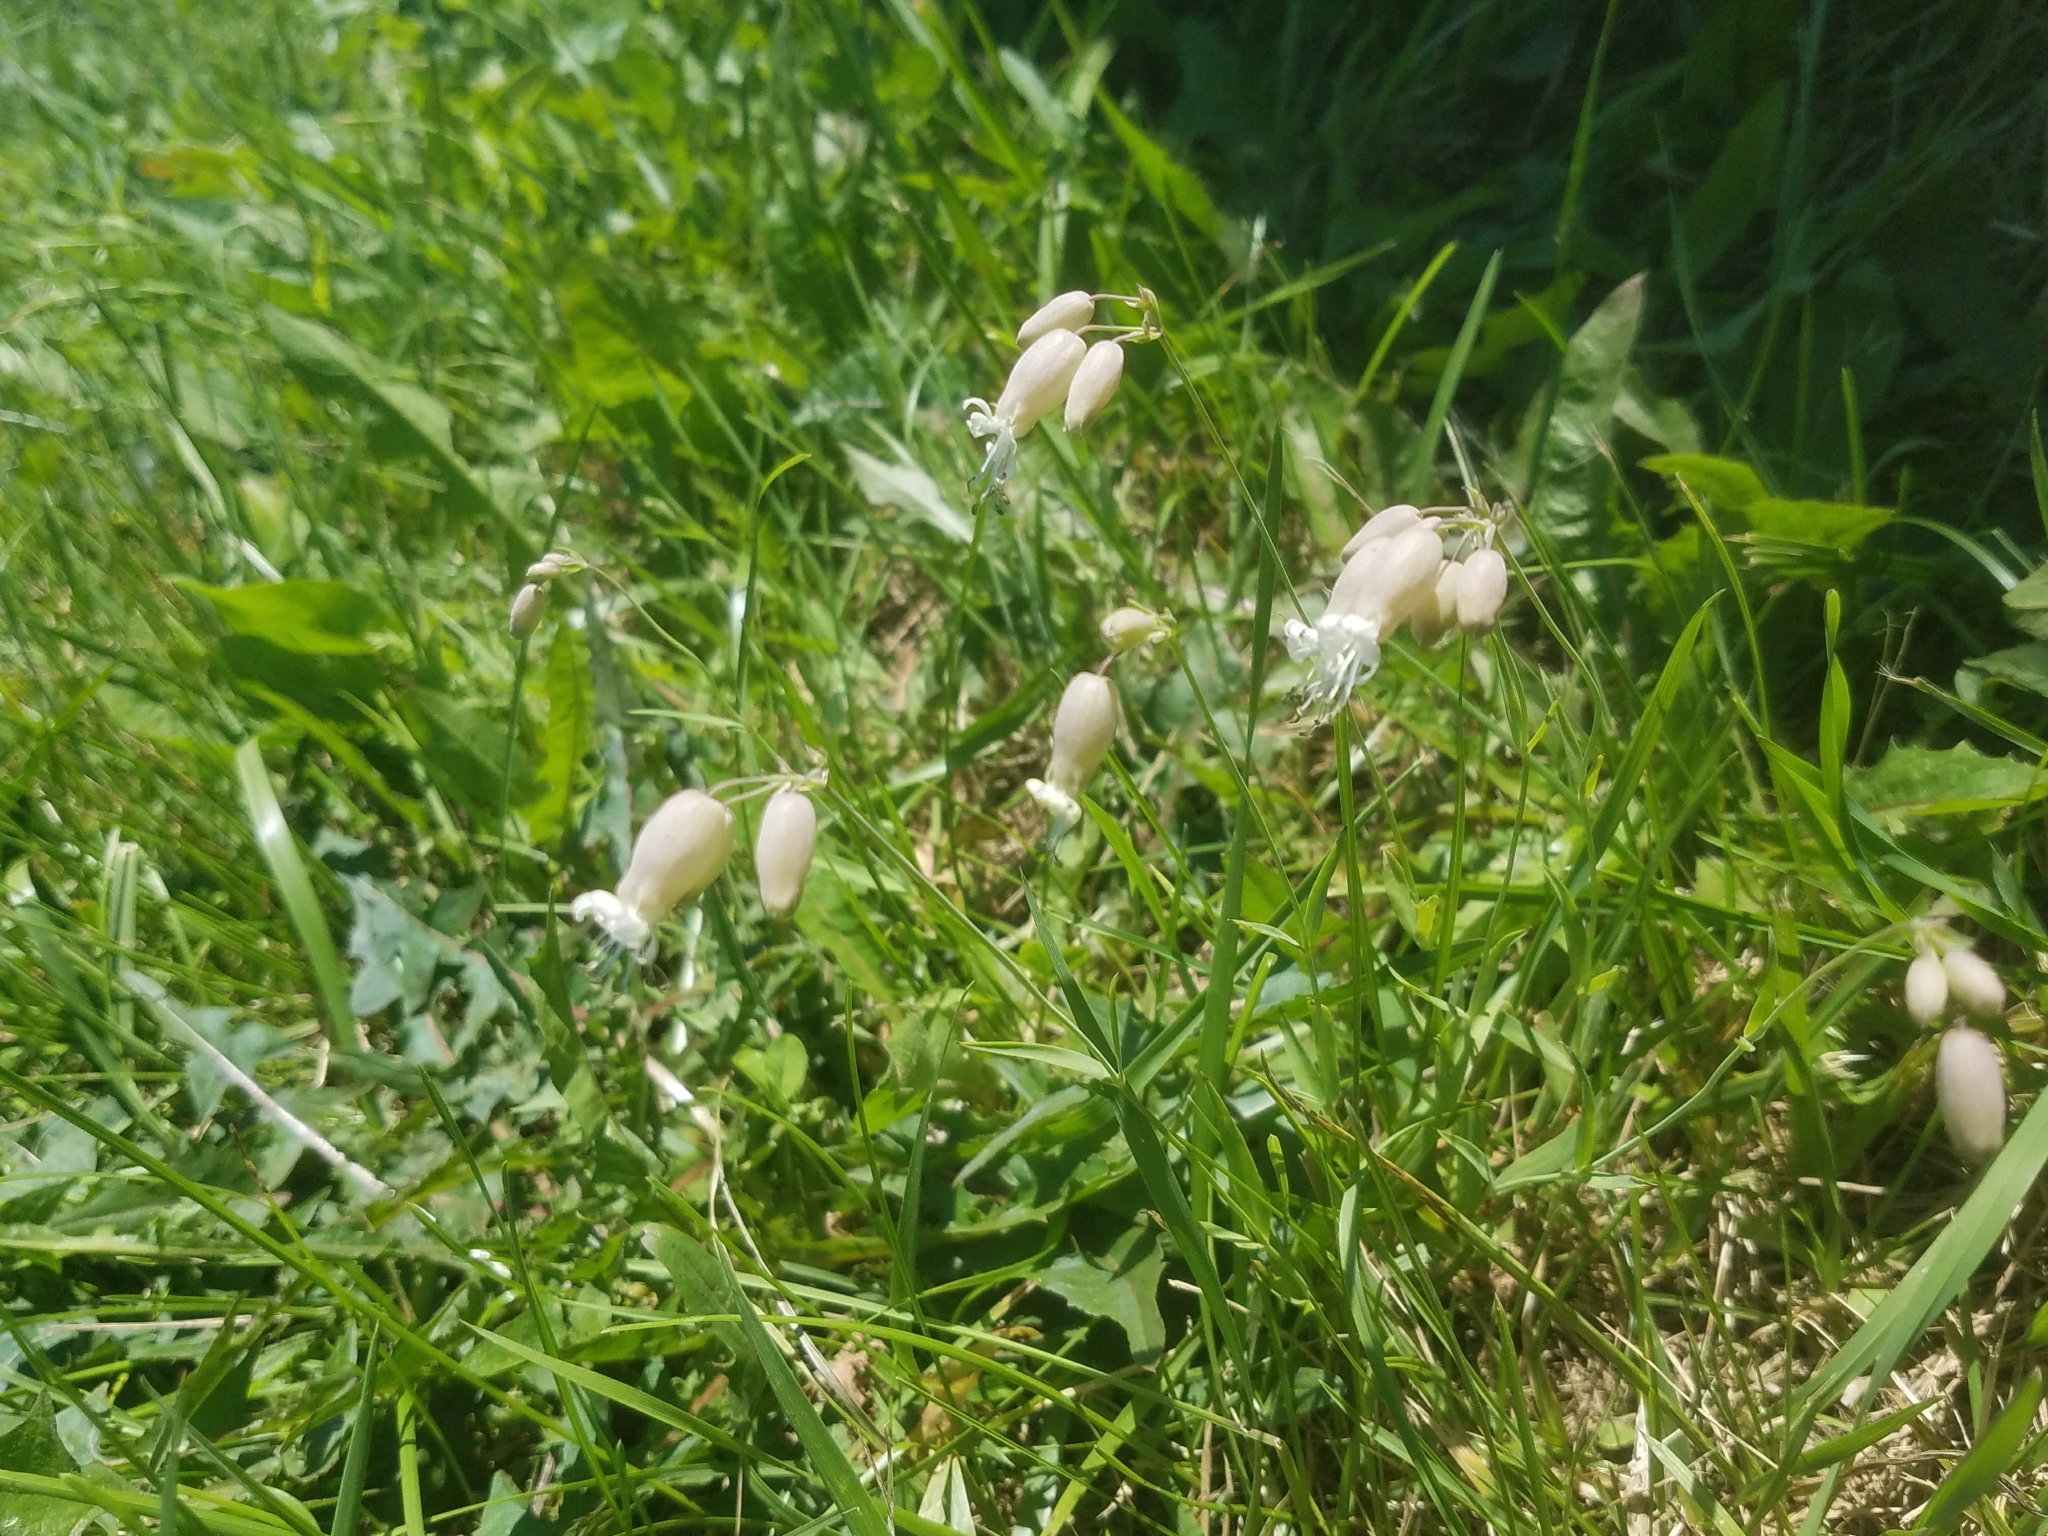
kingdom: Plantae
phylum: Tracheophyta
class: Magnoliopsida
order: Caryophyllales
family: Caryophyllaceae
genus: Silene
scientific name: Silene vulgaris
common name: Bladder campion
